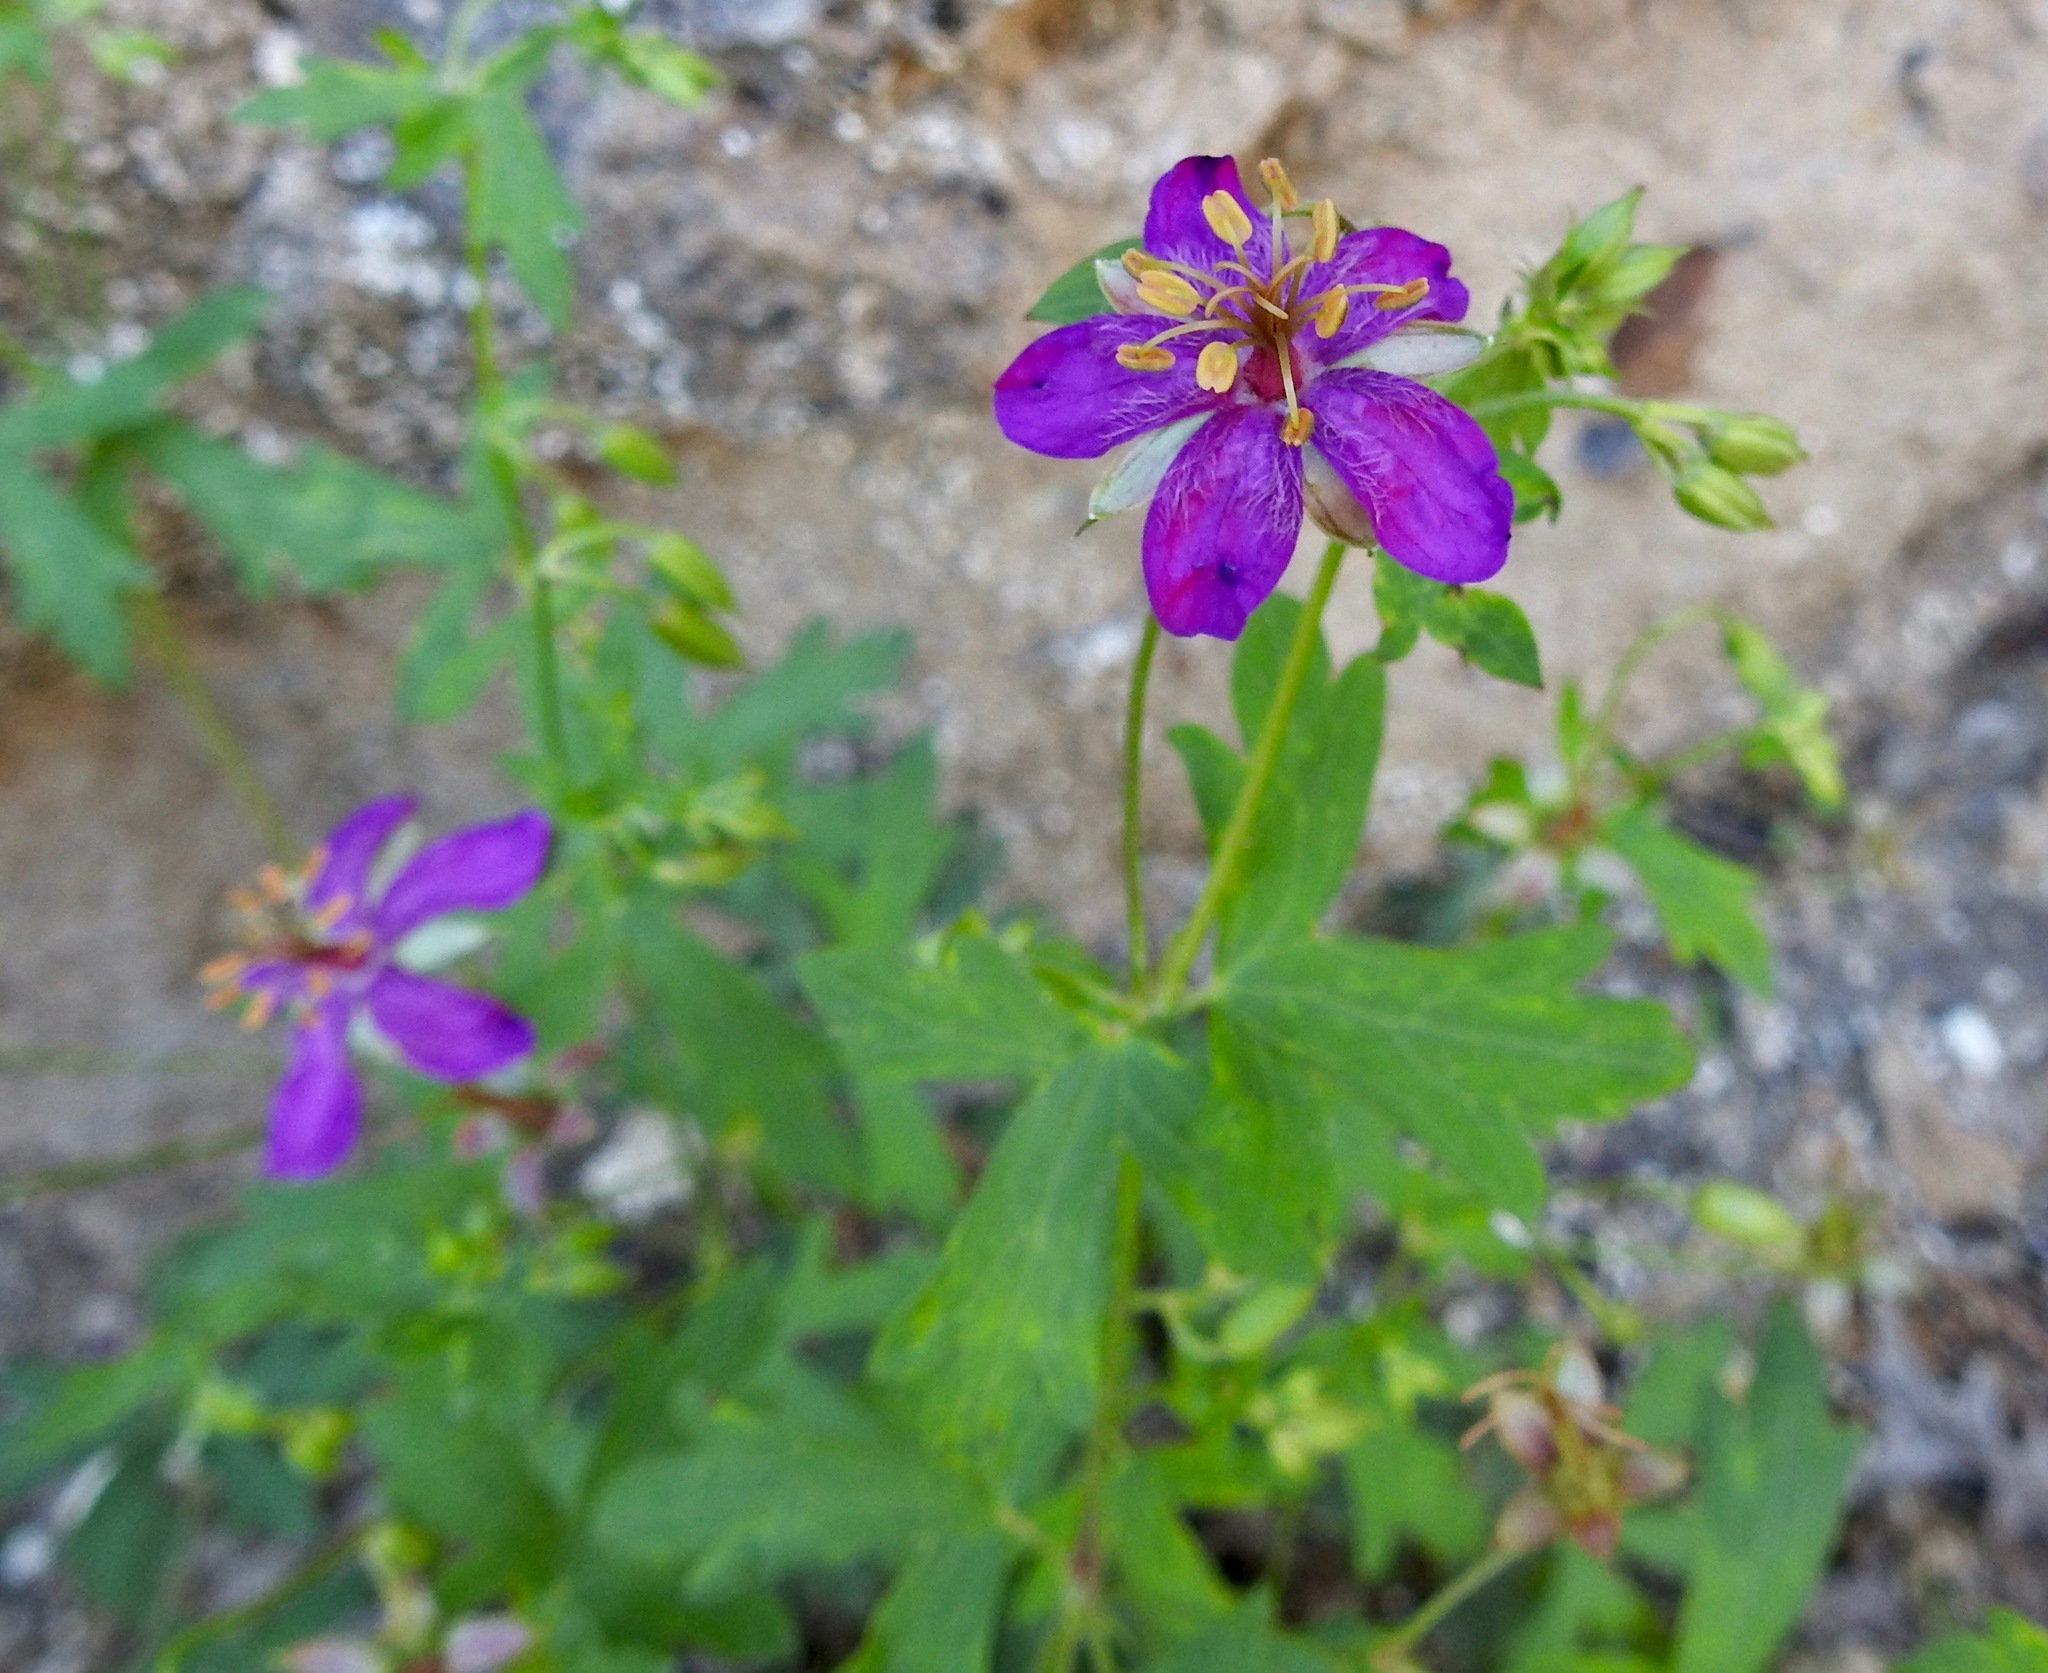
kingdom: Plantae
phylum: Tracheophyta
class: Magnoliopsida
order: Geraniales
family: Geraniaceae
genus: Geranium
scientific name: Geranium caespitosum
